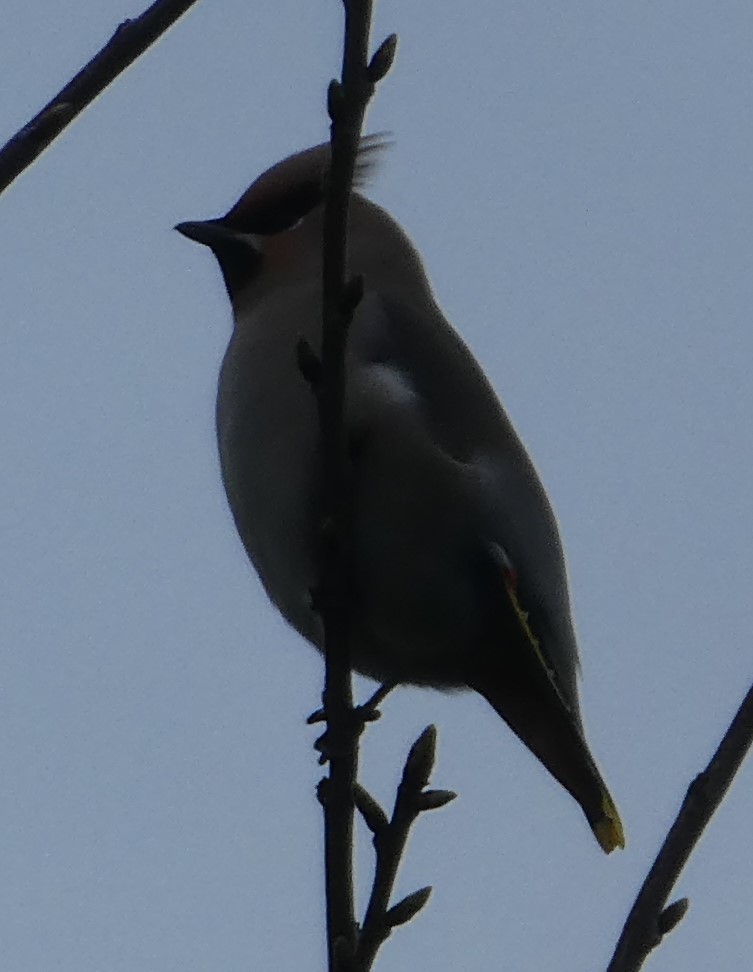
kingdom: Animalia
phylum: Chordata
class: Aves
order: Passeriformes
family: Bombycillidae
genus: Bombycilla
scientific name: Bombycilla garrulus
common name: Bohemian waxwing
